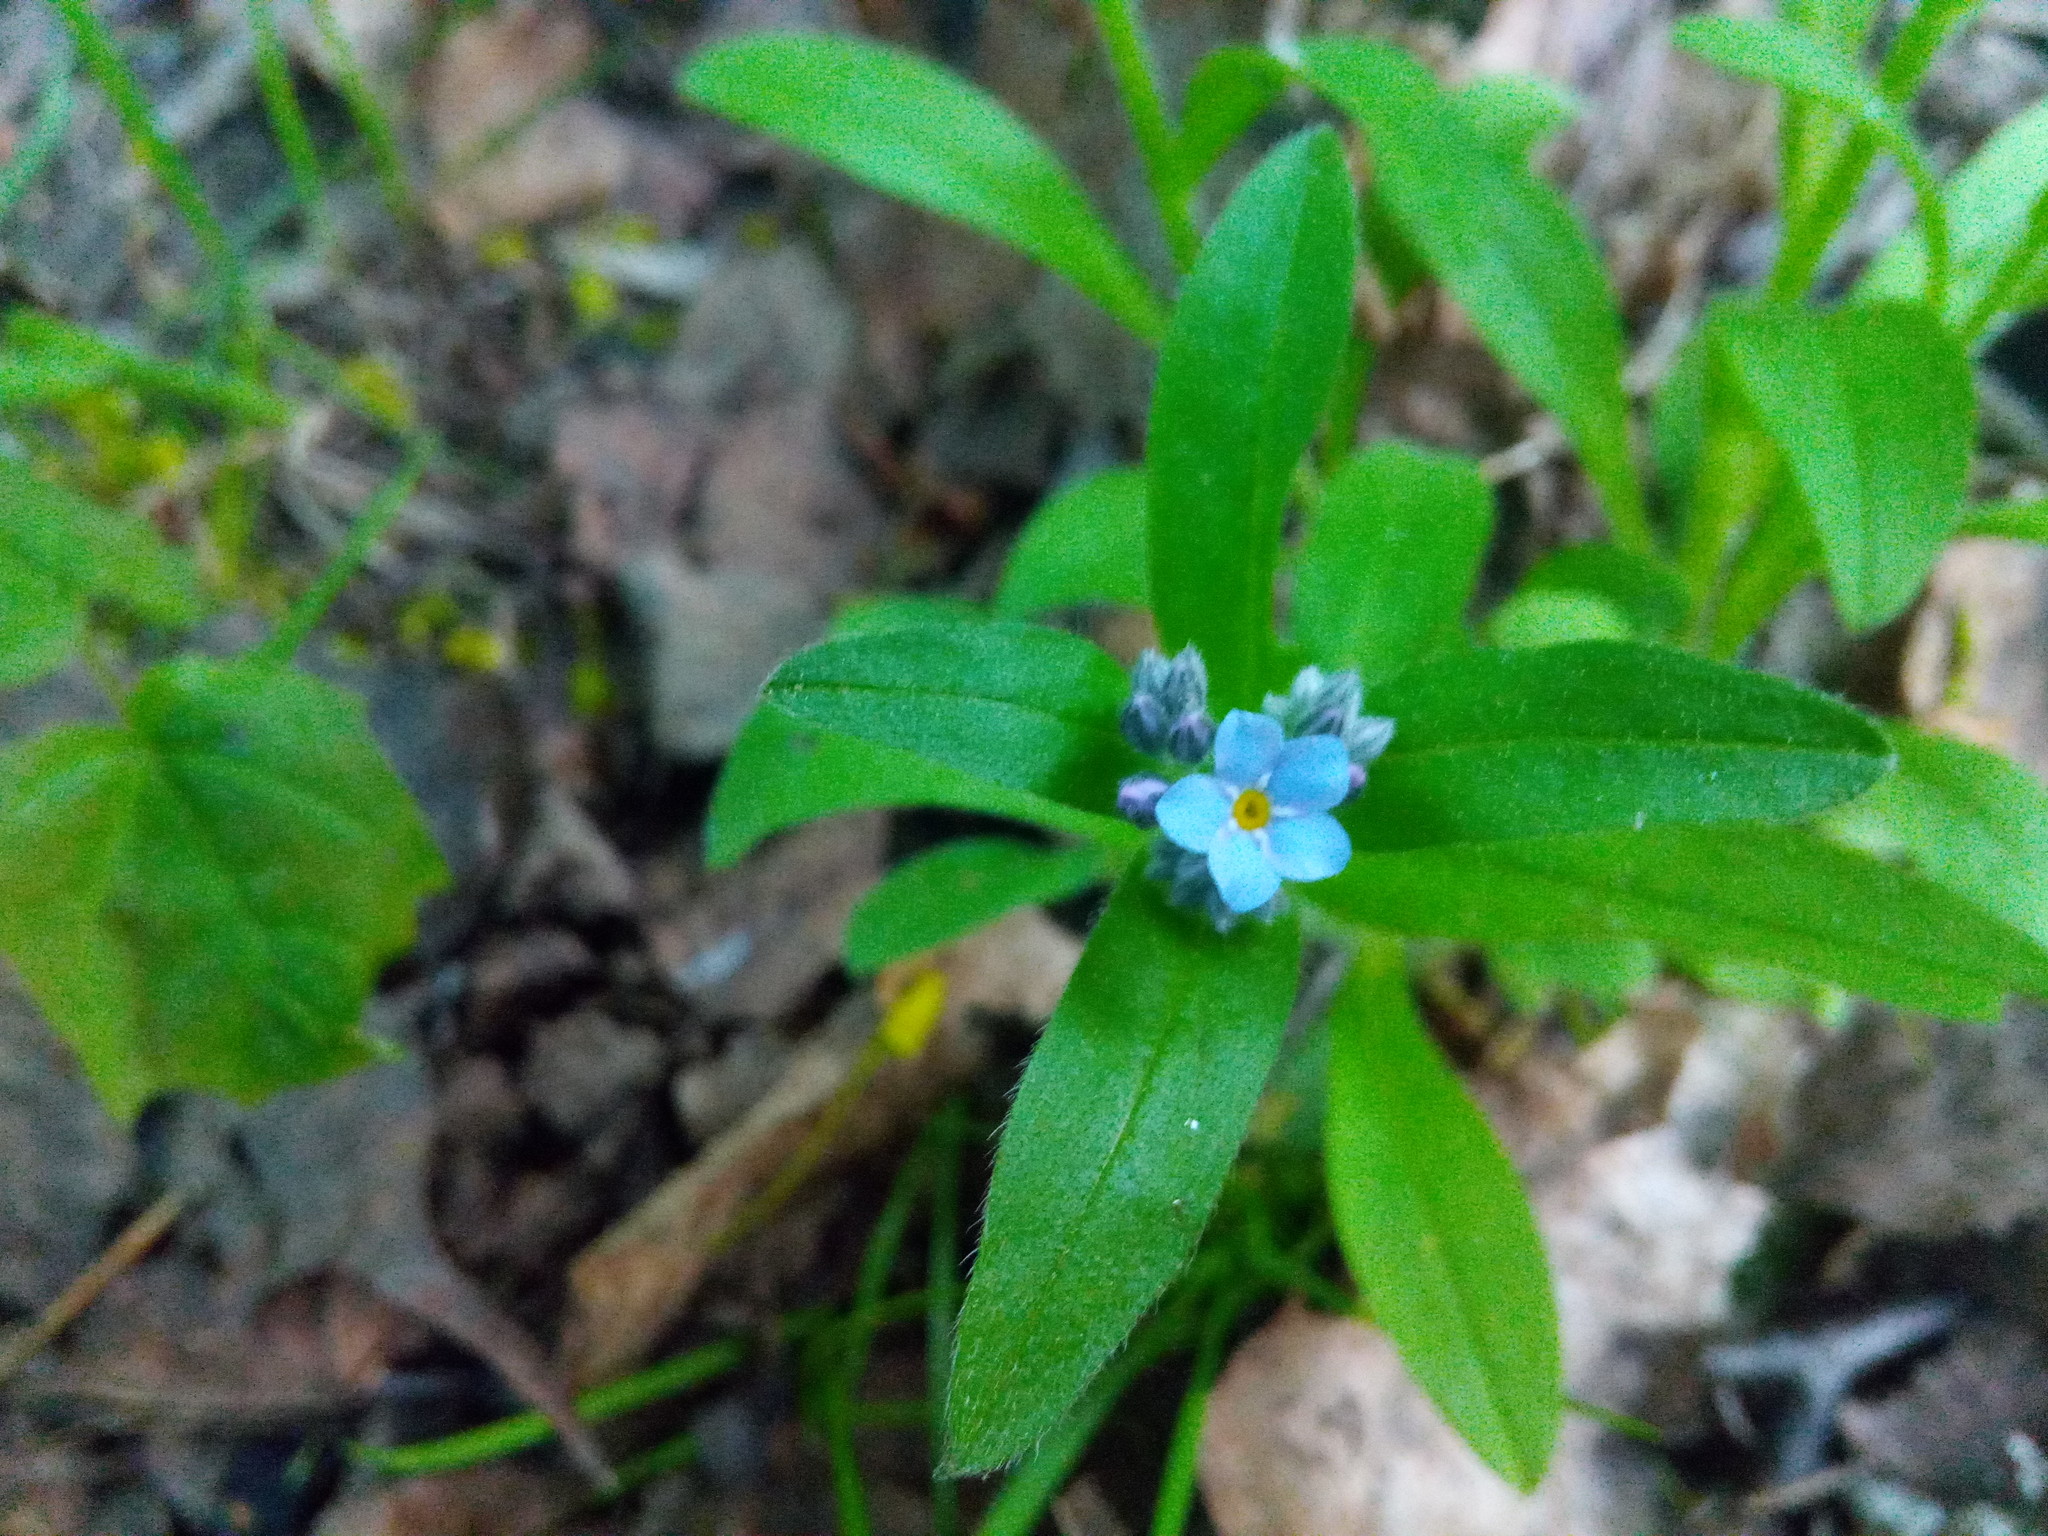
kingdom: Plantae
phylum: Tracheophyta
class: Magnoliopsida
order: Boraginales
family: Boraginaceae
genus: Myosotis
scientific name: Myosotis sylvatica
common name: Wood forget-me-not
